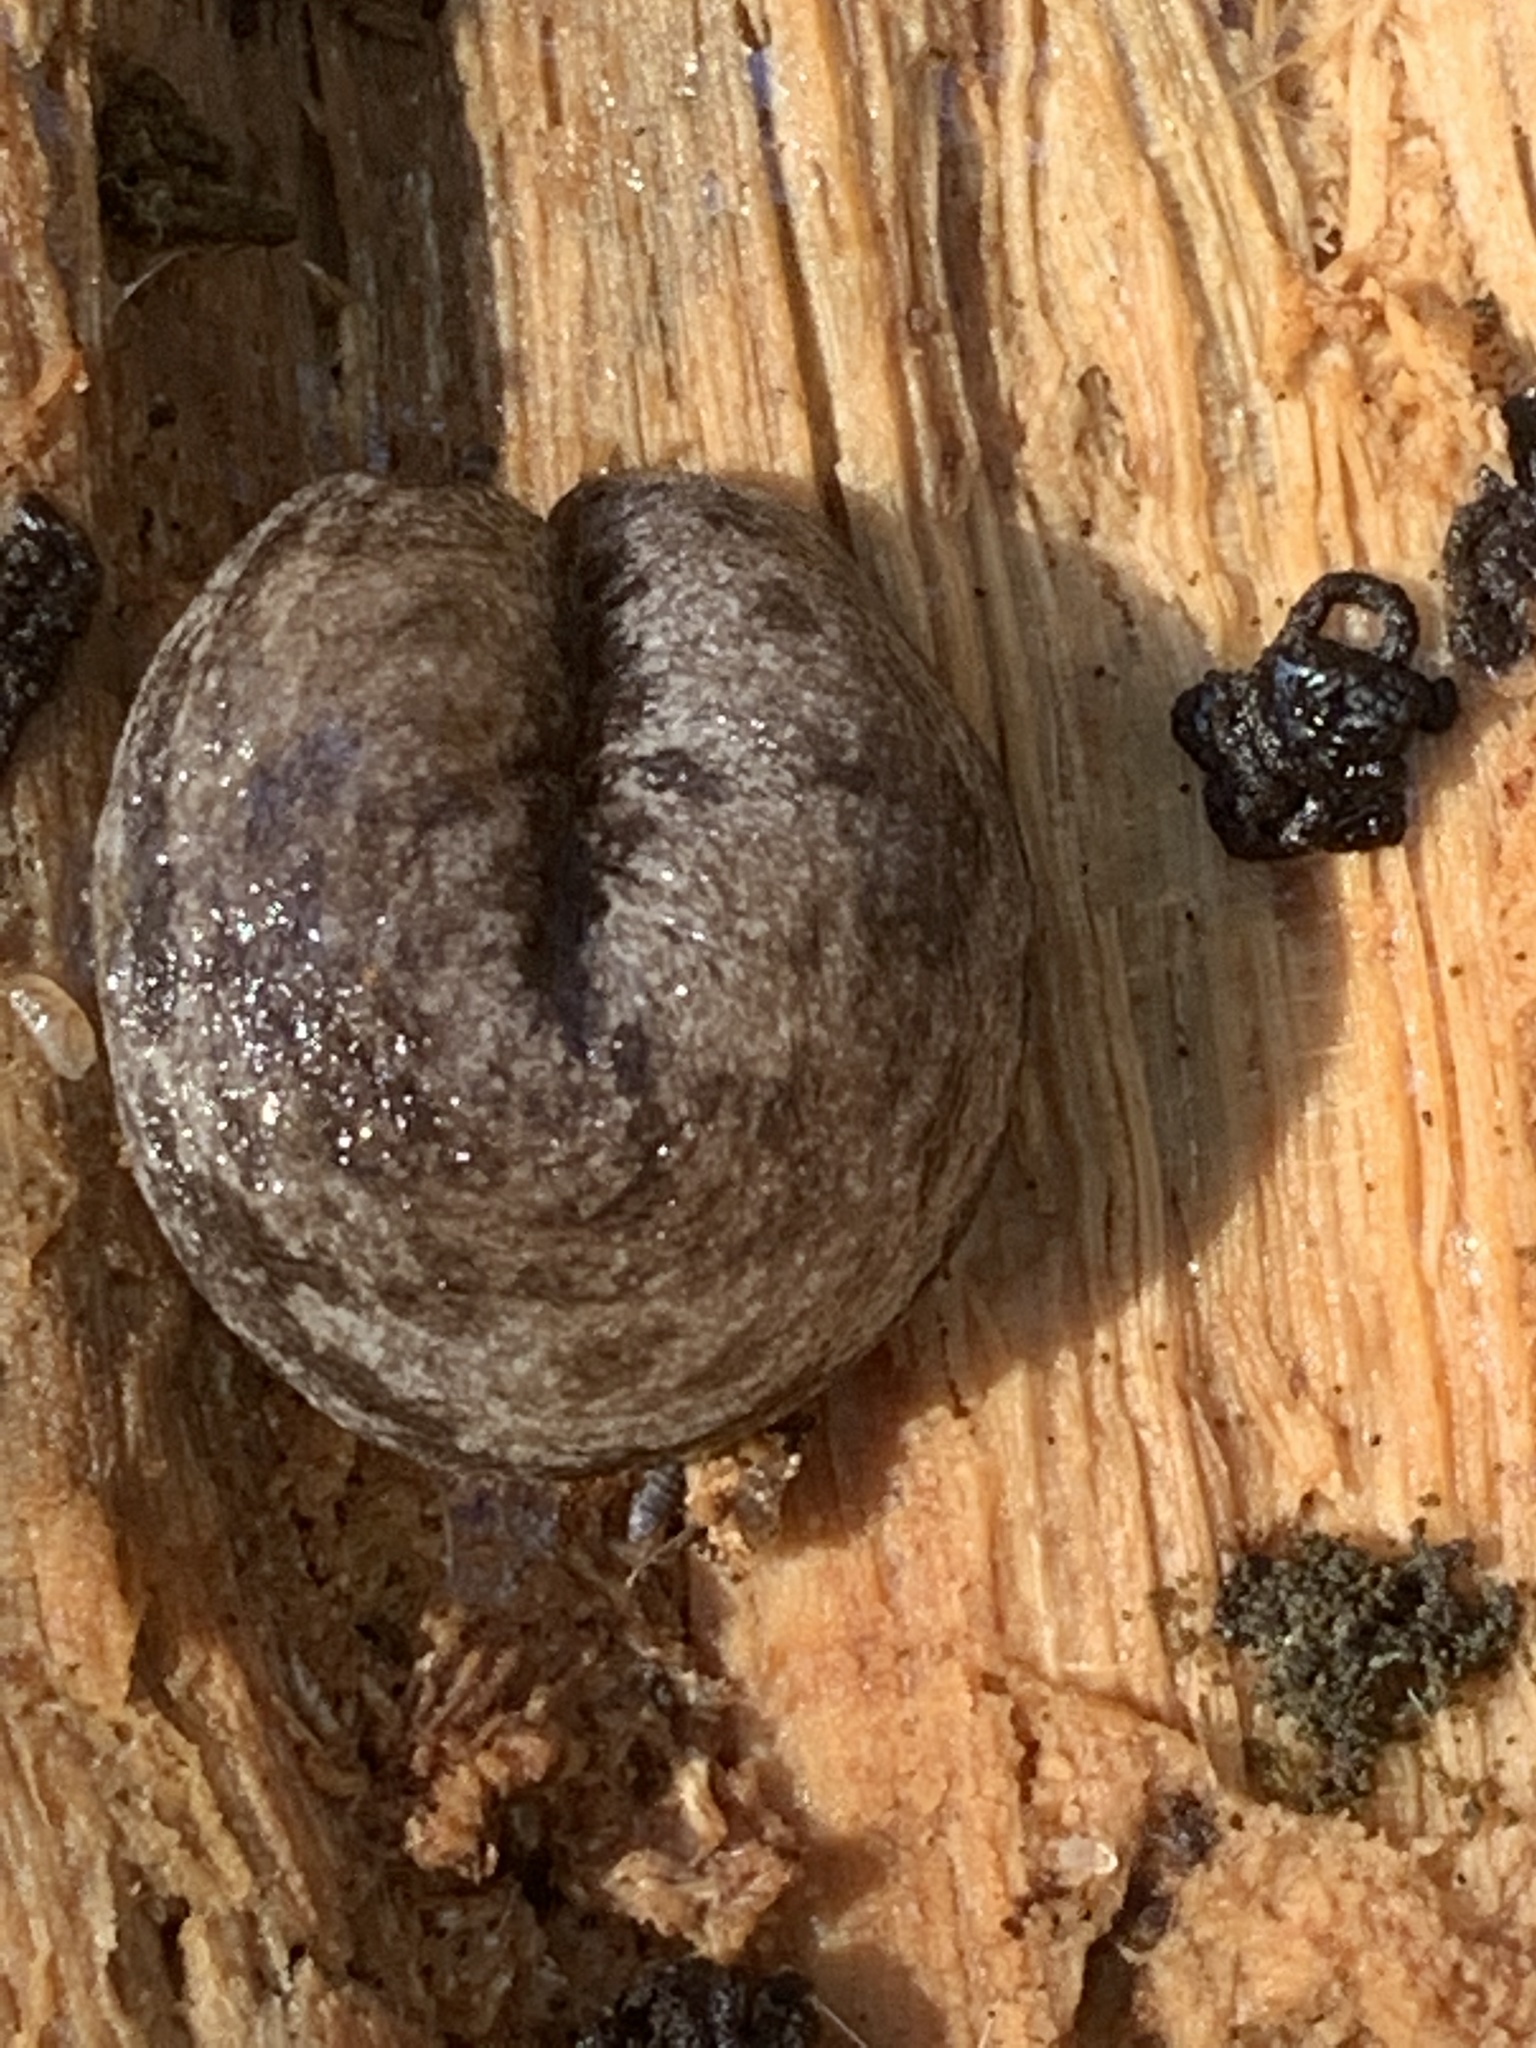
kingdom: Animalia
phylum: Mollusca
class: Gastropoda
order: Stylommatophora
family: Philomycidae
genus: Megapallifera
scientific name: Megapallifera mutabilis
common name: Changeable mantleslug
